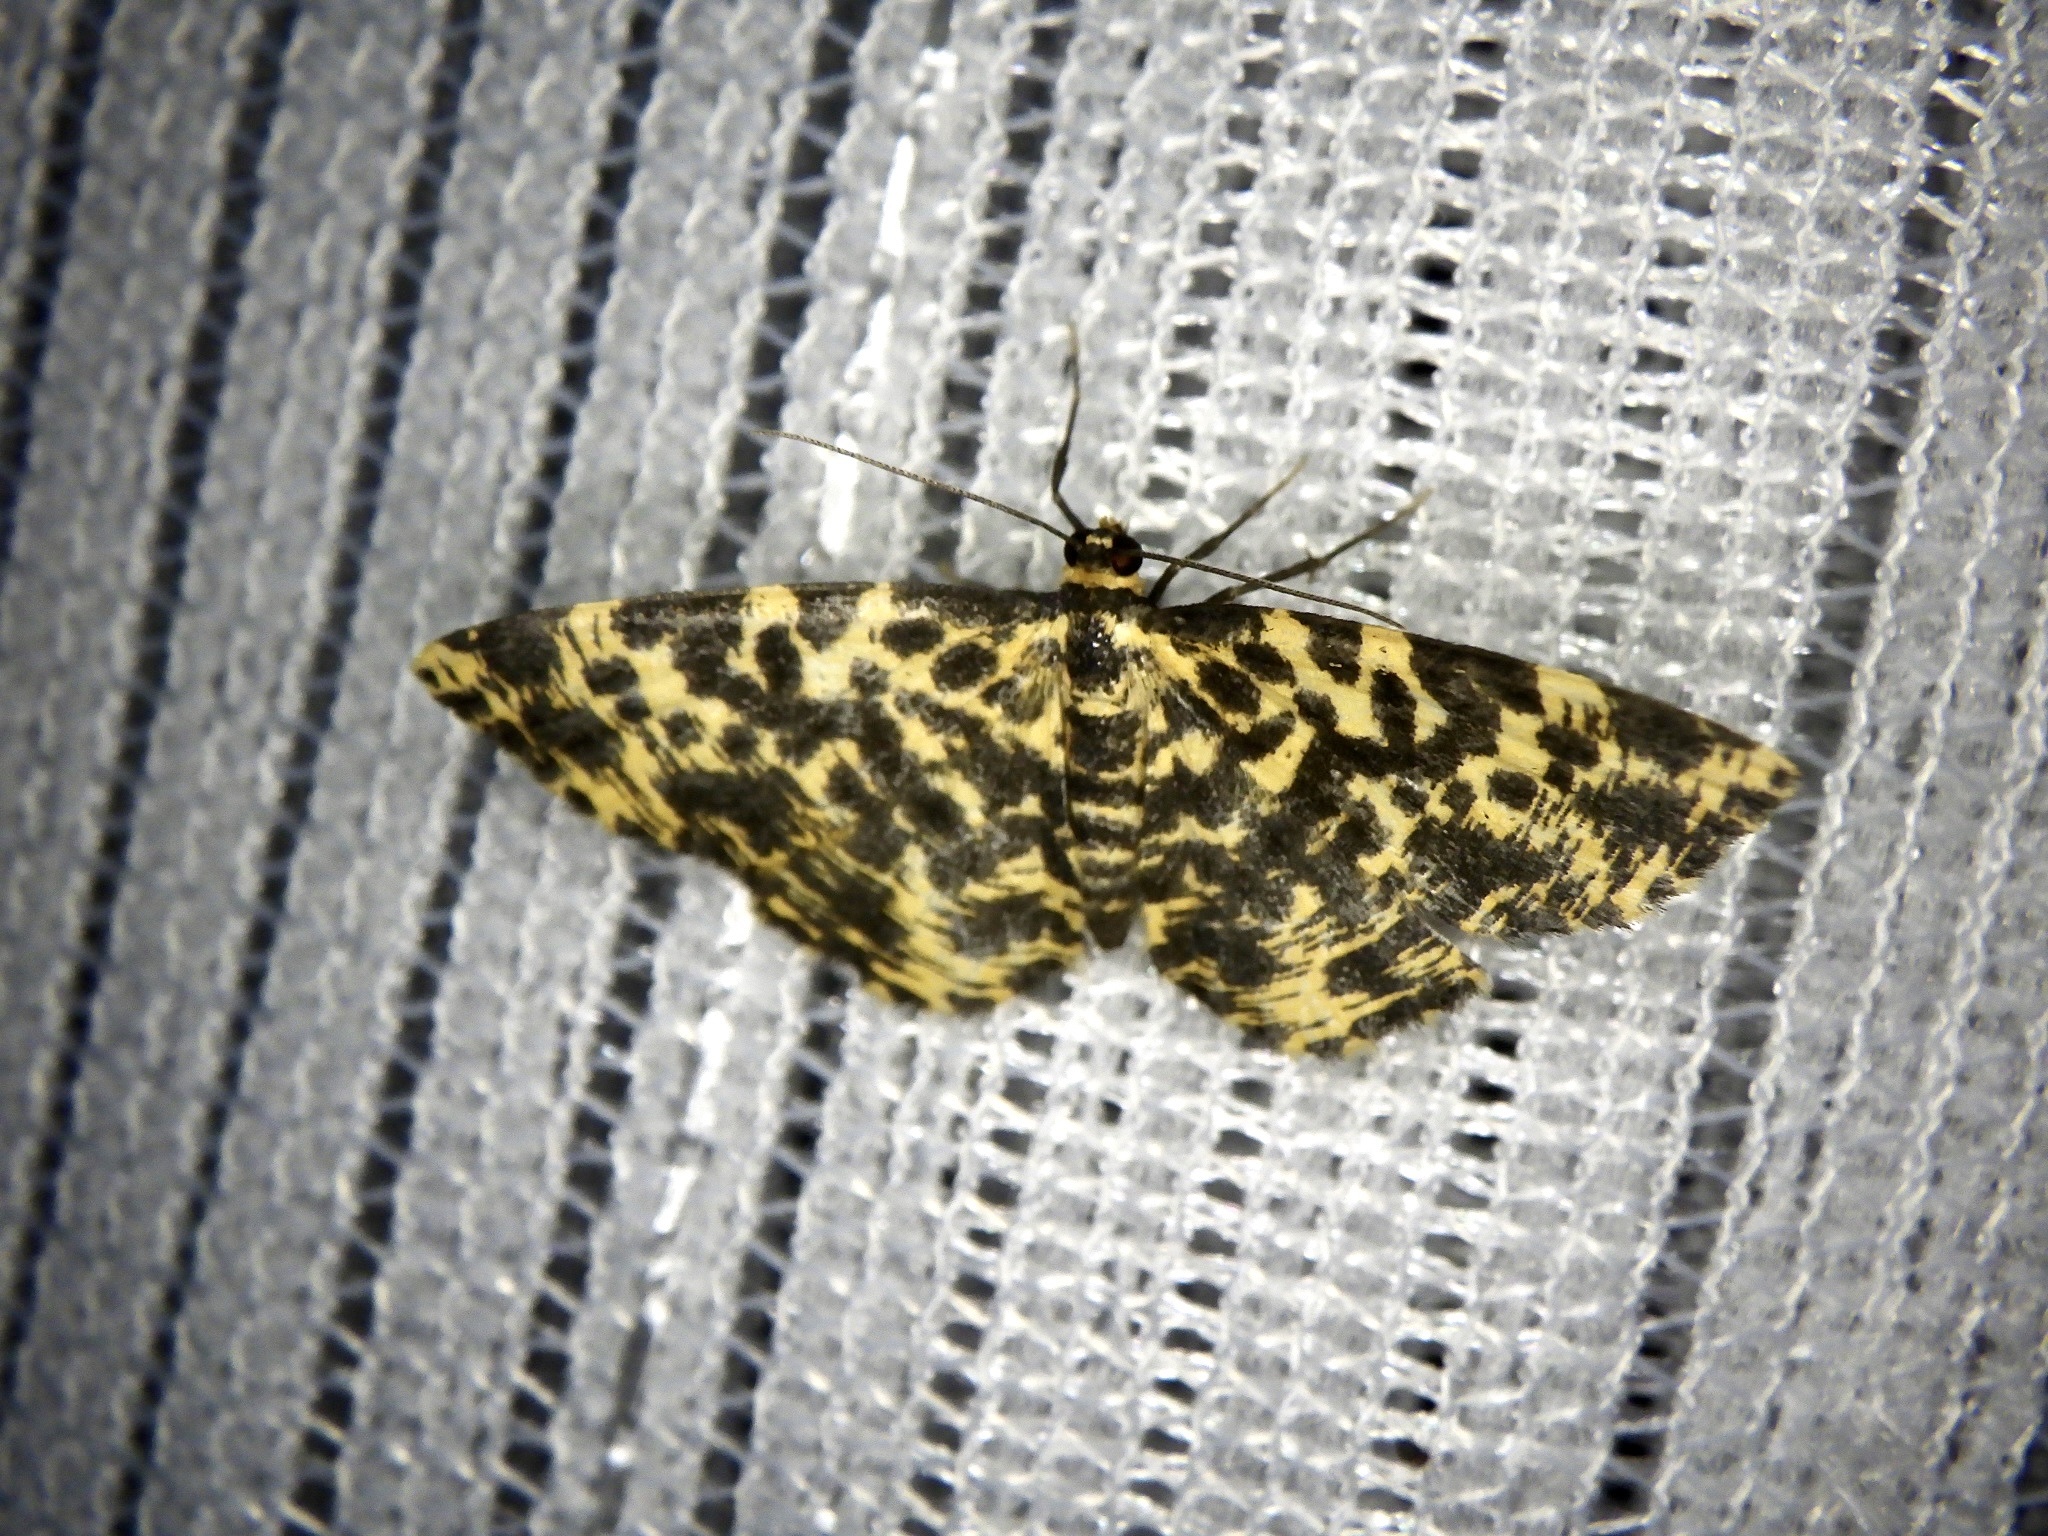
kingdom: Animalia
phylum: Arthropoda
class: Insecta
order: Lepidoptera
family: Geometridae
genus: Monocerotesa
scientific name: Monocerotesa lutearia
